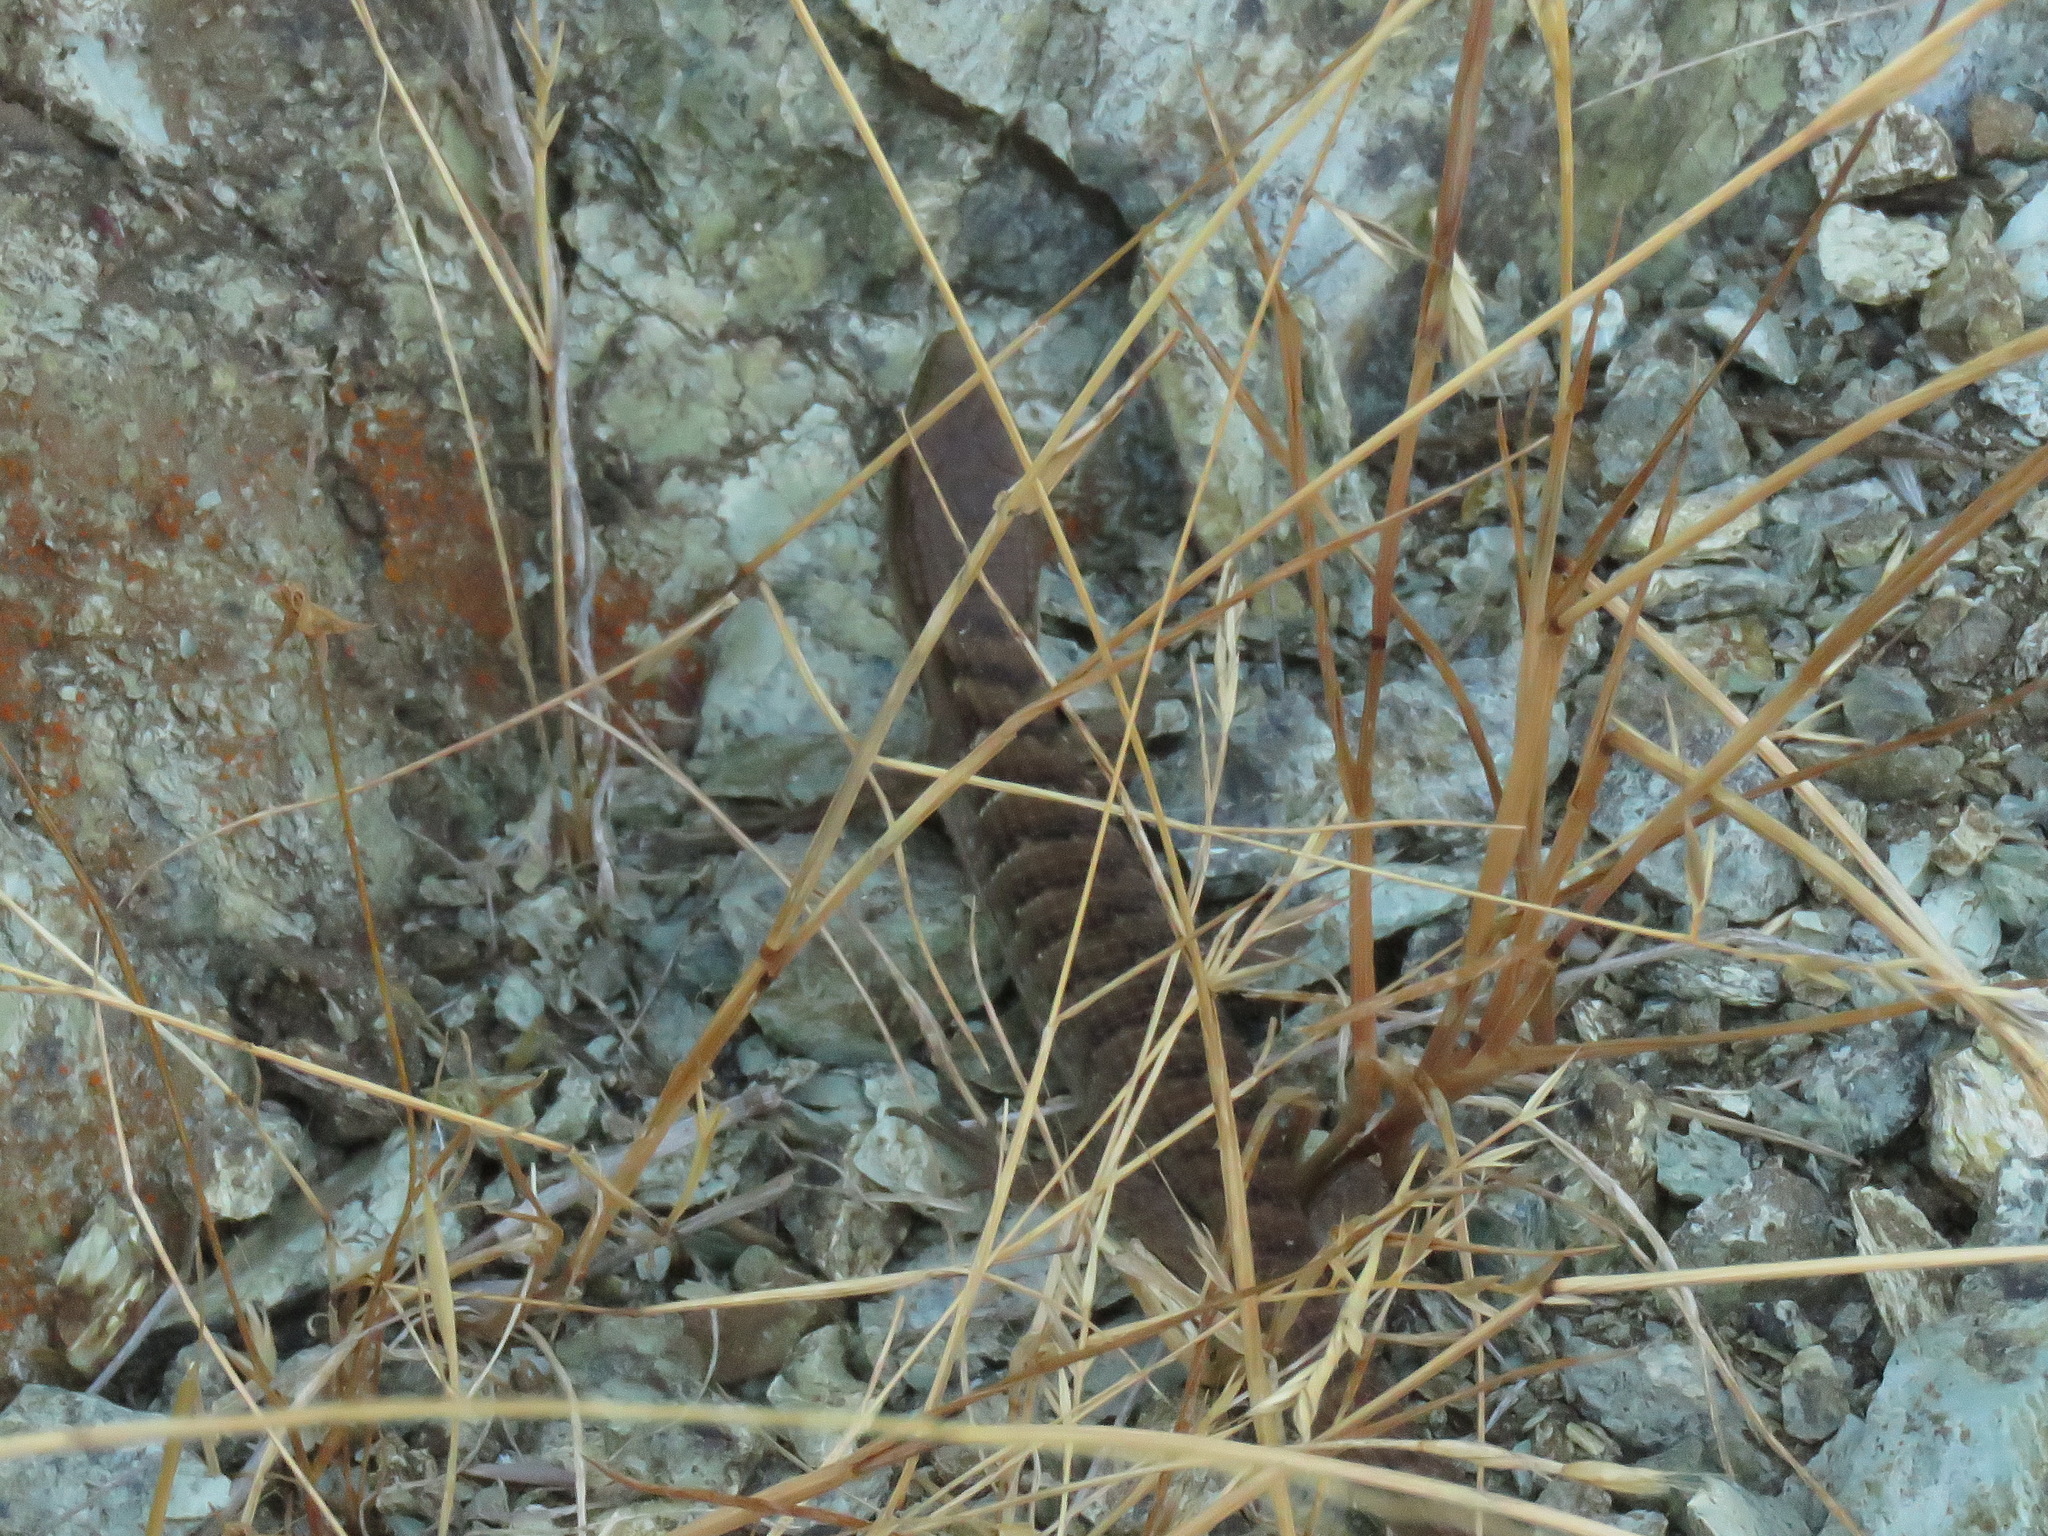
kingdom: Animalia
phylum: Chordata
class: Squamata
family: Anguidae
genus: Elgaria
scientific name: Elgaria multicarinata
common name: Southern alligator lizard
